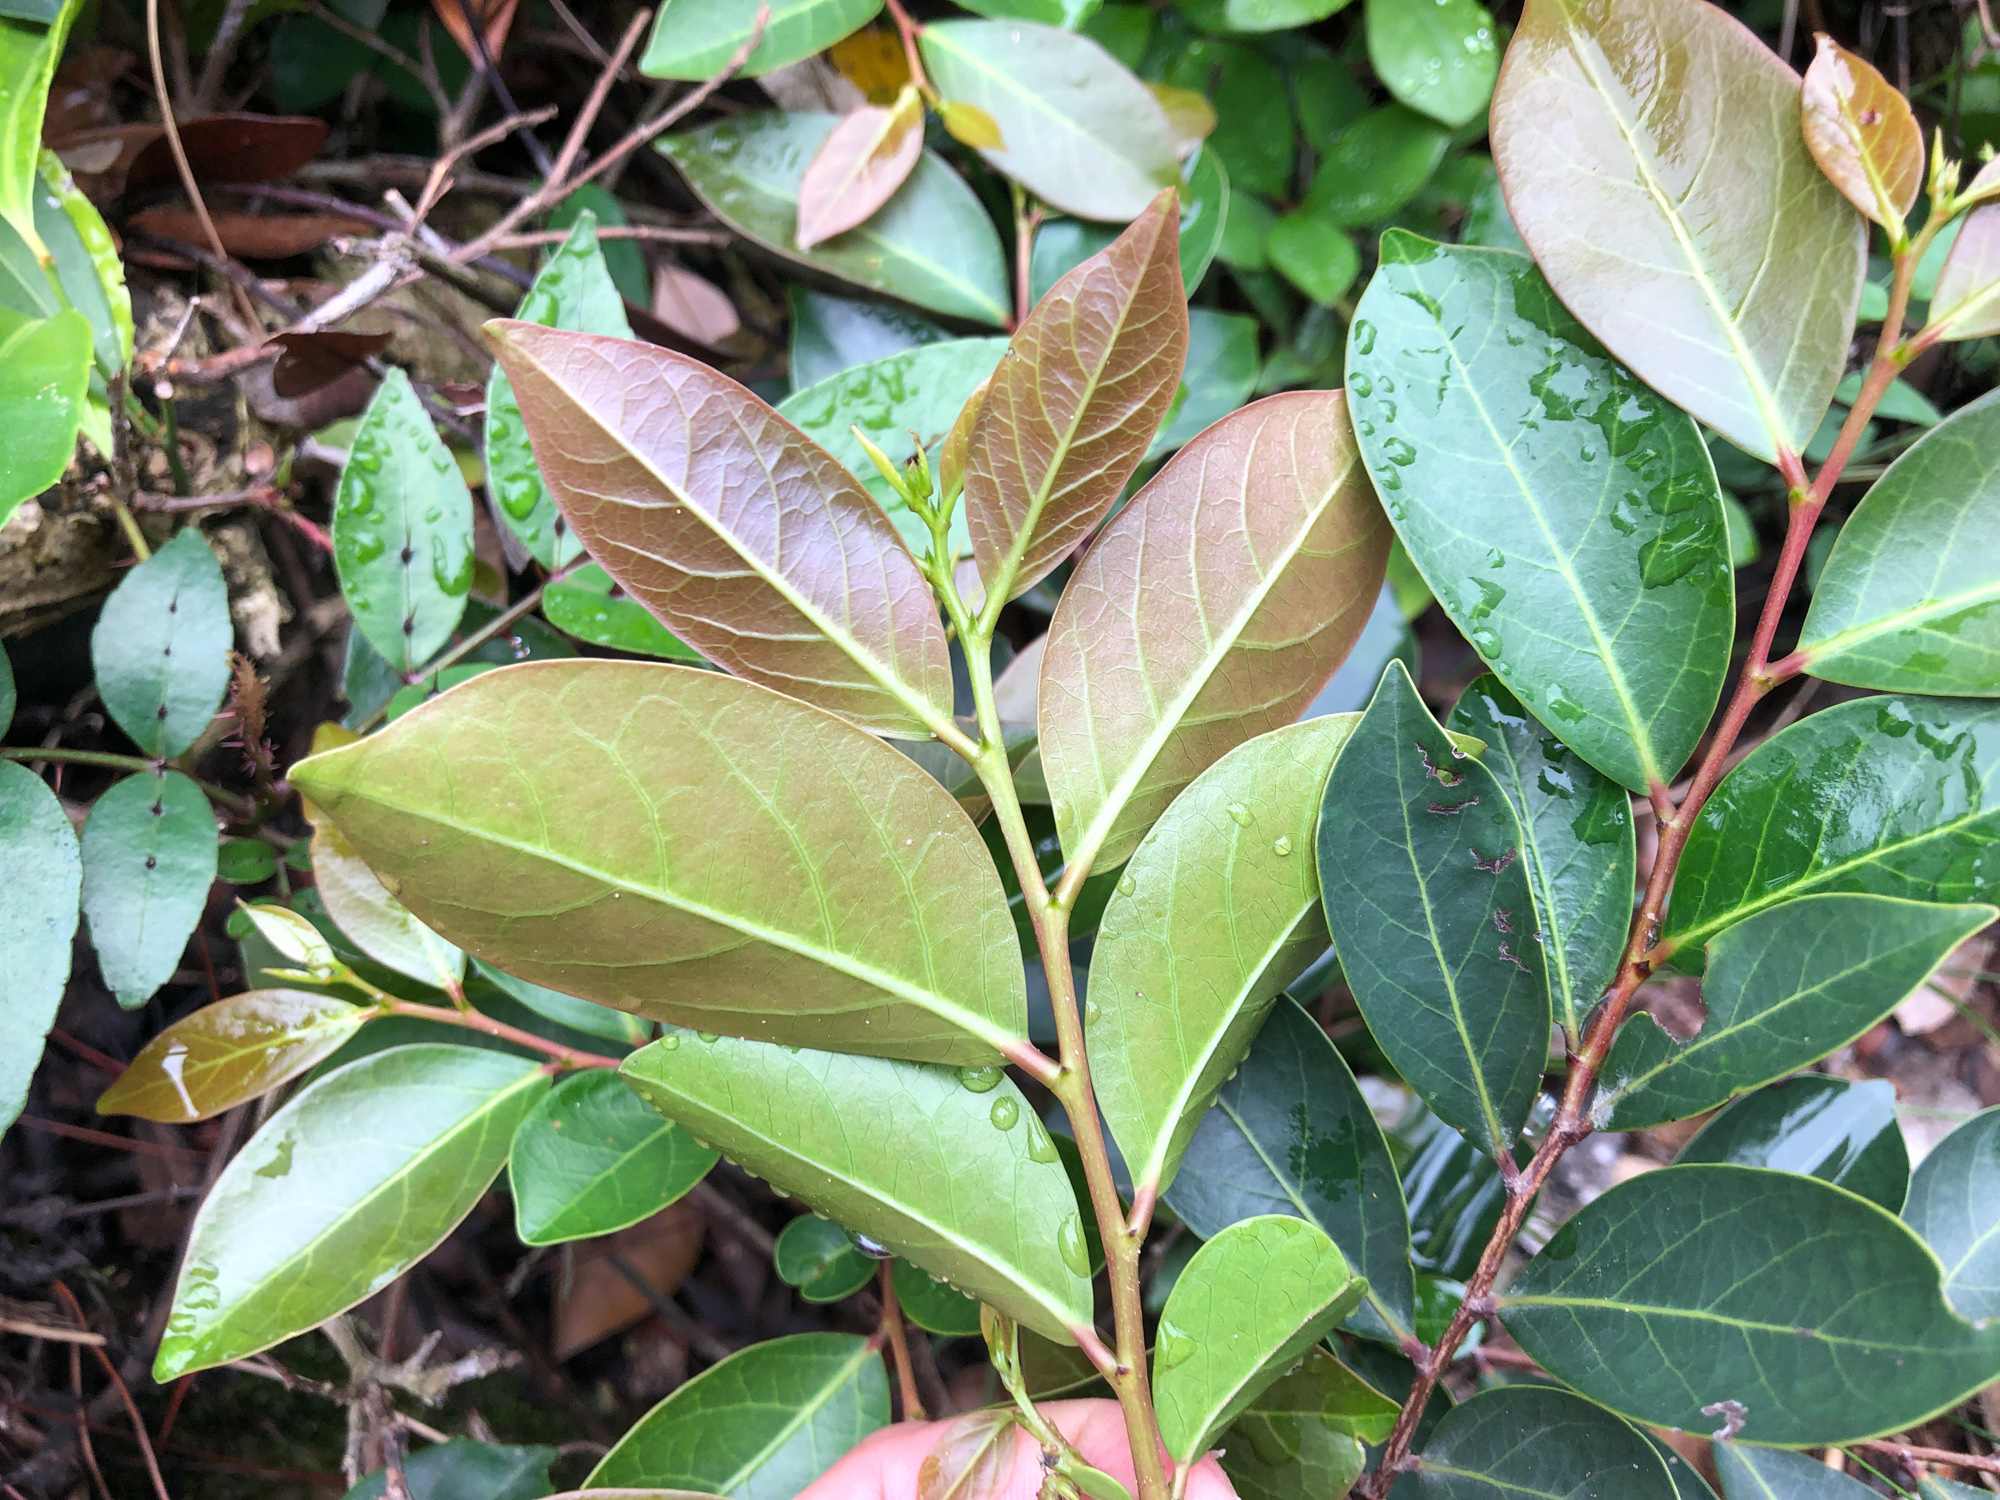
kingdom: Plantae
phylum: Tracheophyta
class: Magnoliopsida
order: Malpighiales
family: Phyllanthaceae
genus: Glochidion
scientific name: Glochidion rubrum
